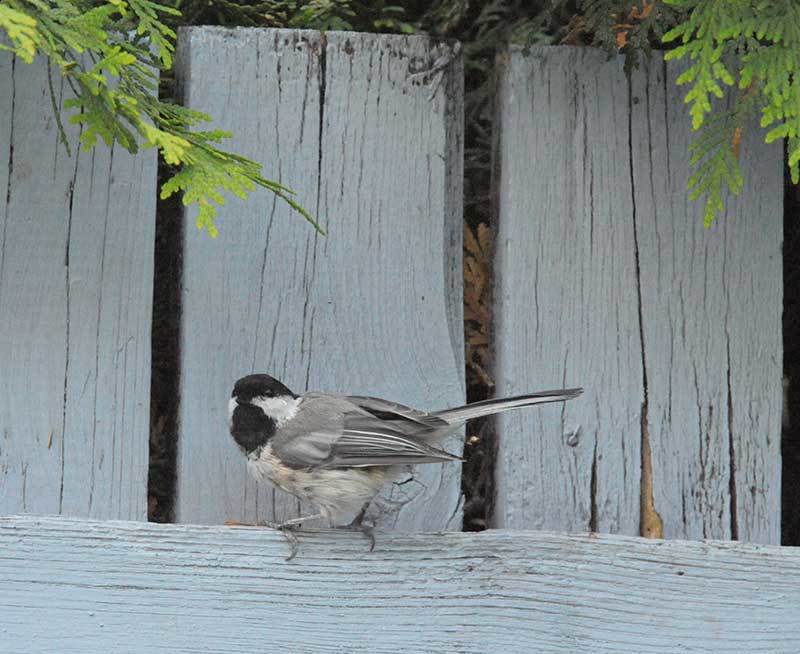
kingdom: Animalia
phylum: Chordata
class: Aves
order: Passeriformes
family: Paridae
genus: Poecile
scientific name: Poecile atricapillus
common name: Black-capped chickadee
